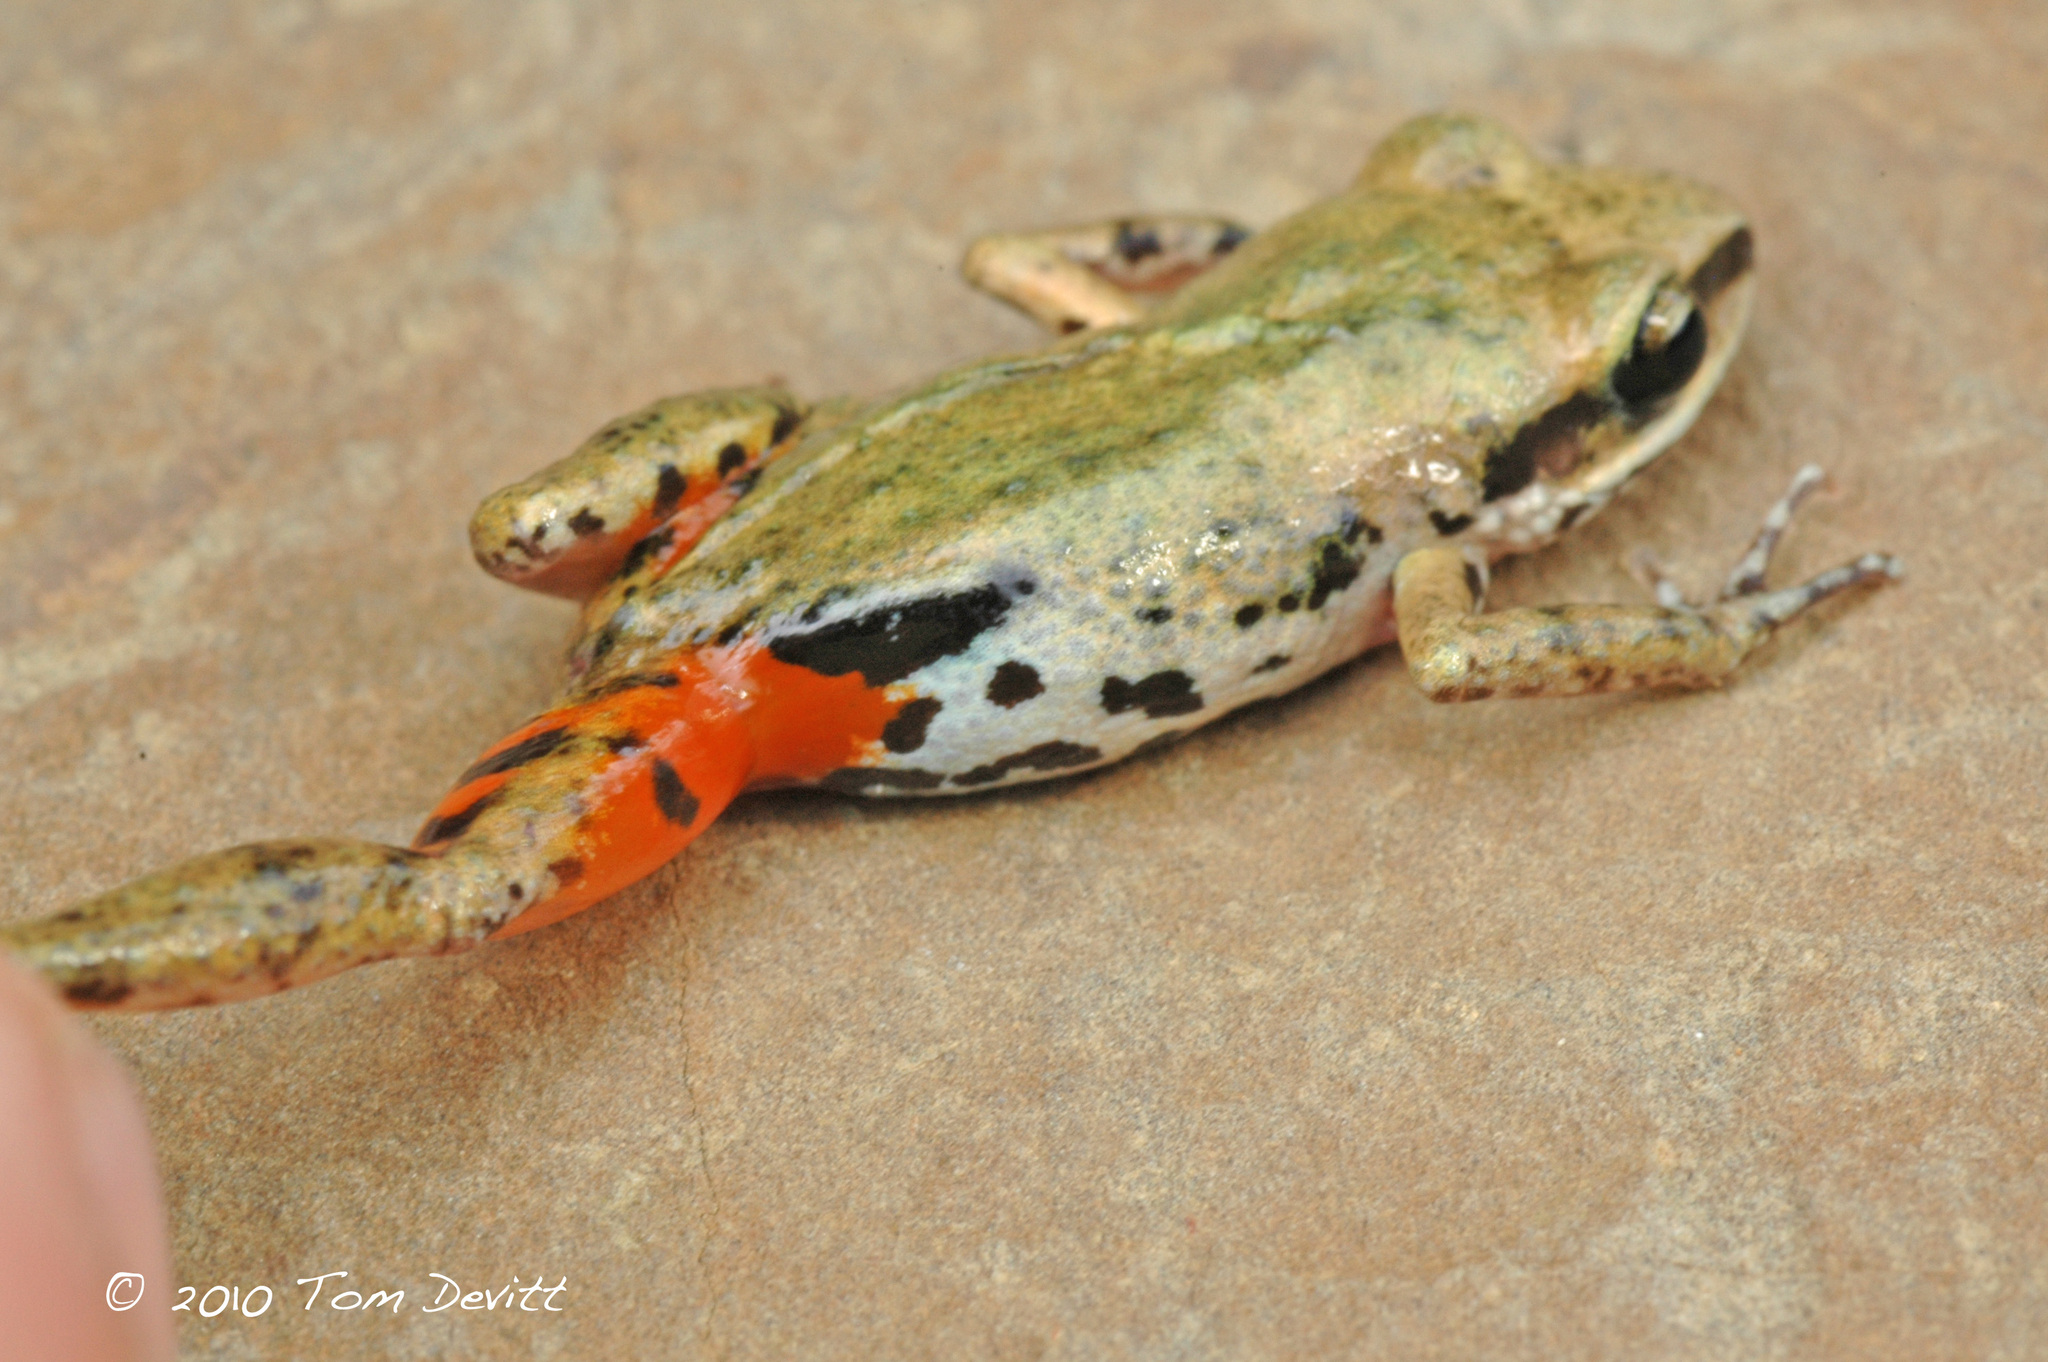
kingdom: Animalia
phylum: Chordata
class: Amphibia
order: Anura
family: Eleutherodactylidae
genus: Eleutherodactylus
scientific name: Eleutherodactylus albolabris
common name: White-lipped peeping frog
